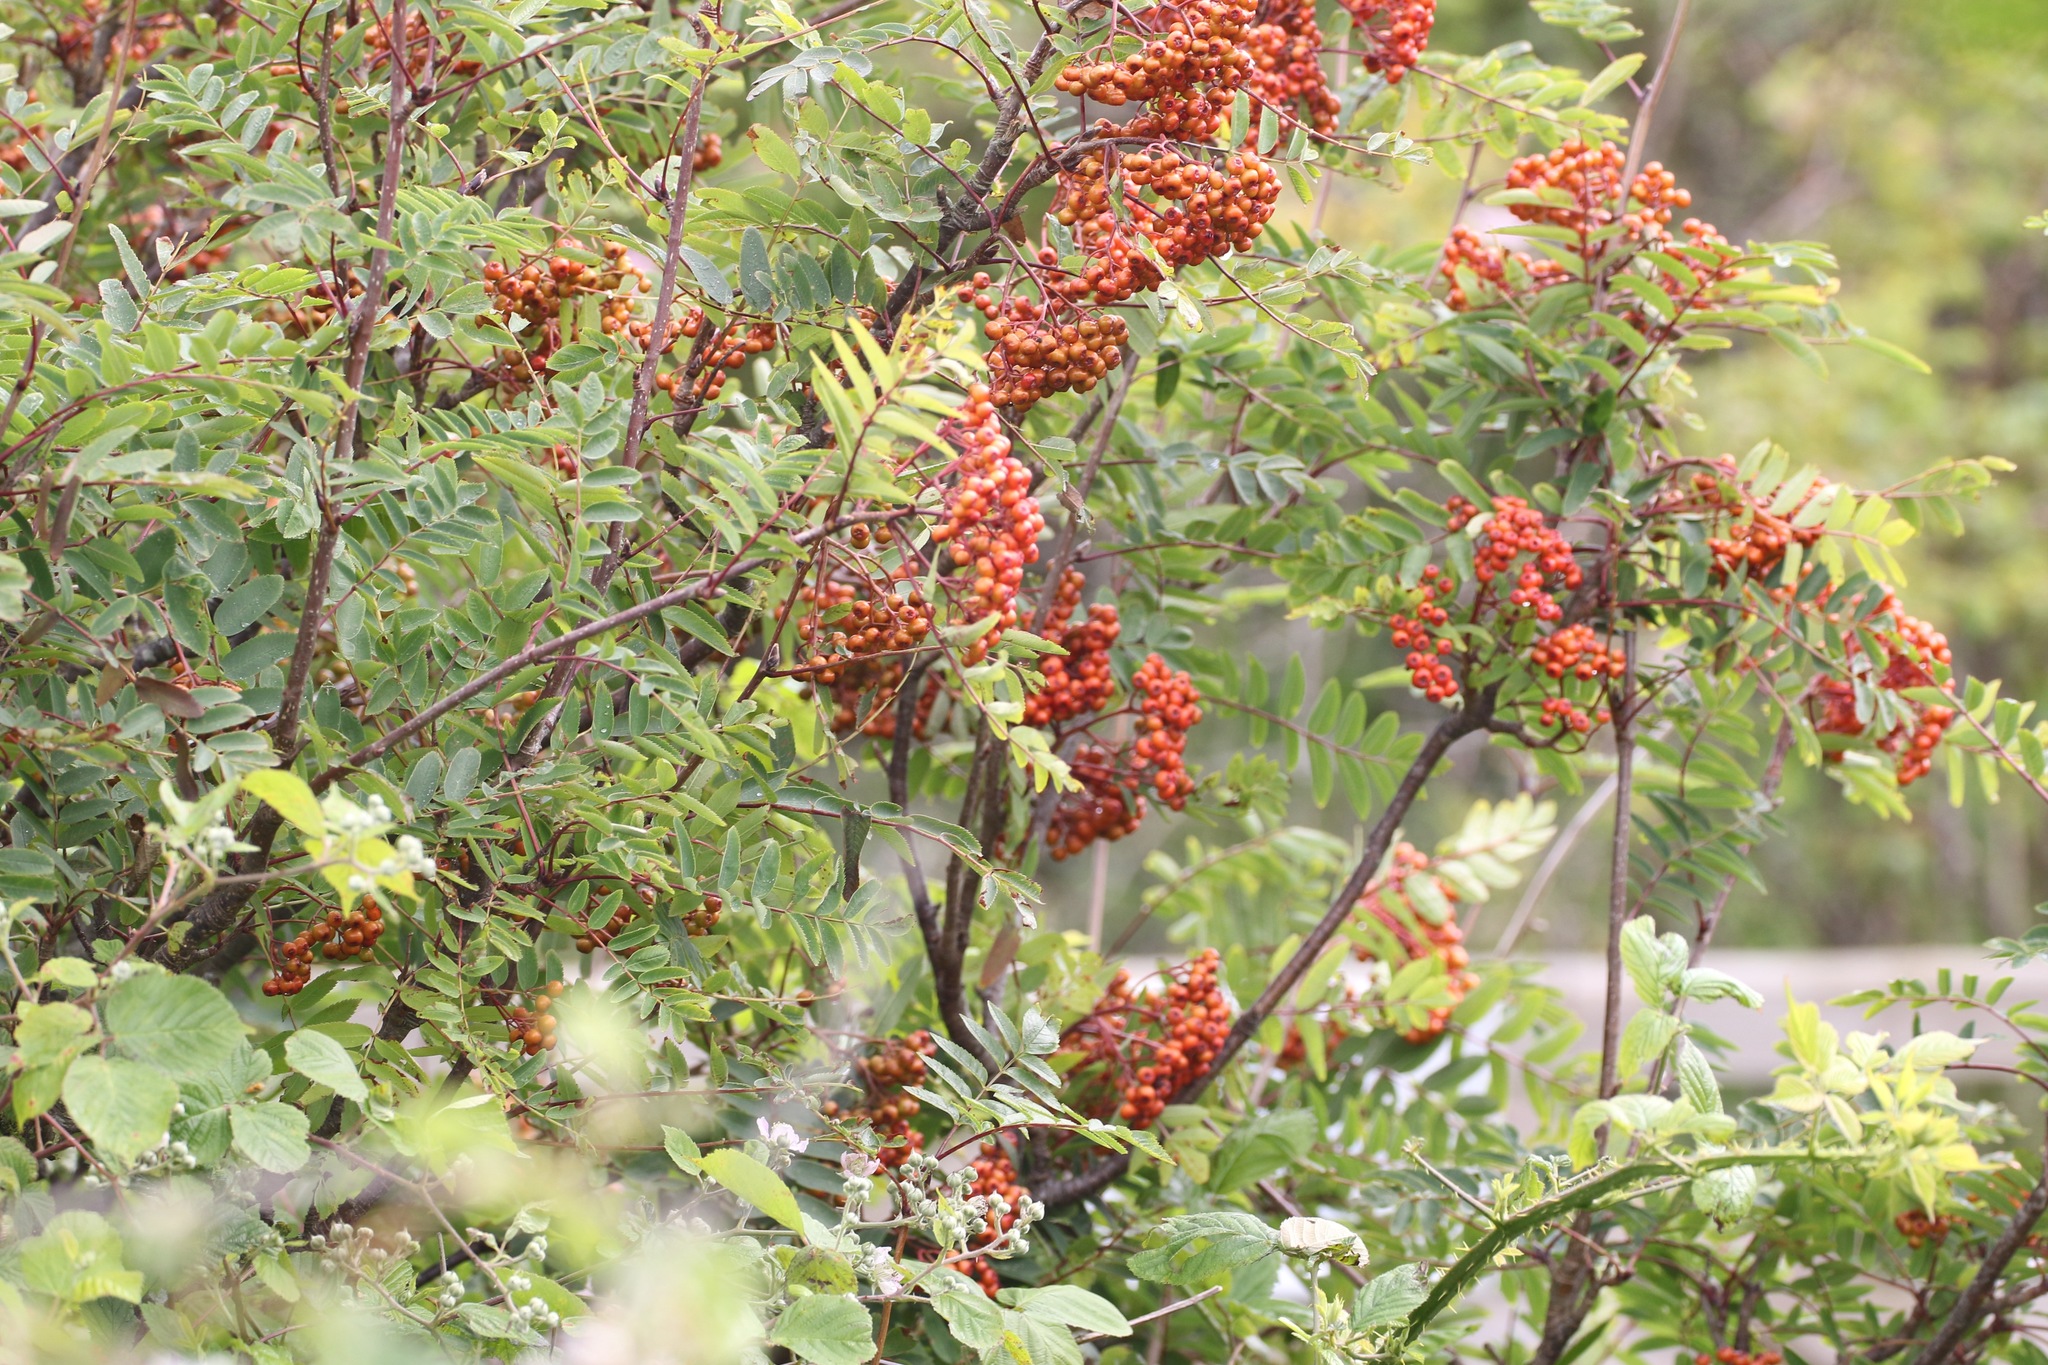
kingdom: Plantae
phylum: Tracheophyta
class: Magnoliopsida
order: Rosales
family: Rosaceae
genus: Sorbus
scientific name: Sorbus aucuparia
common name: Rowan
